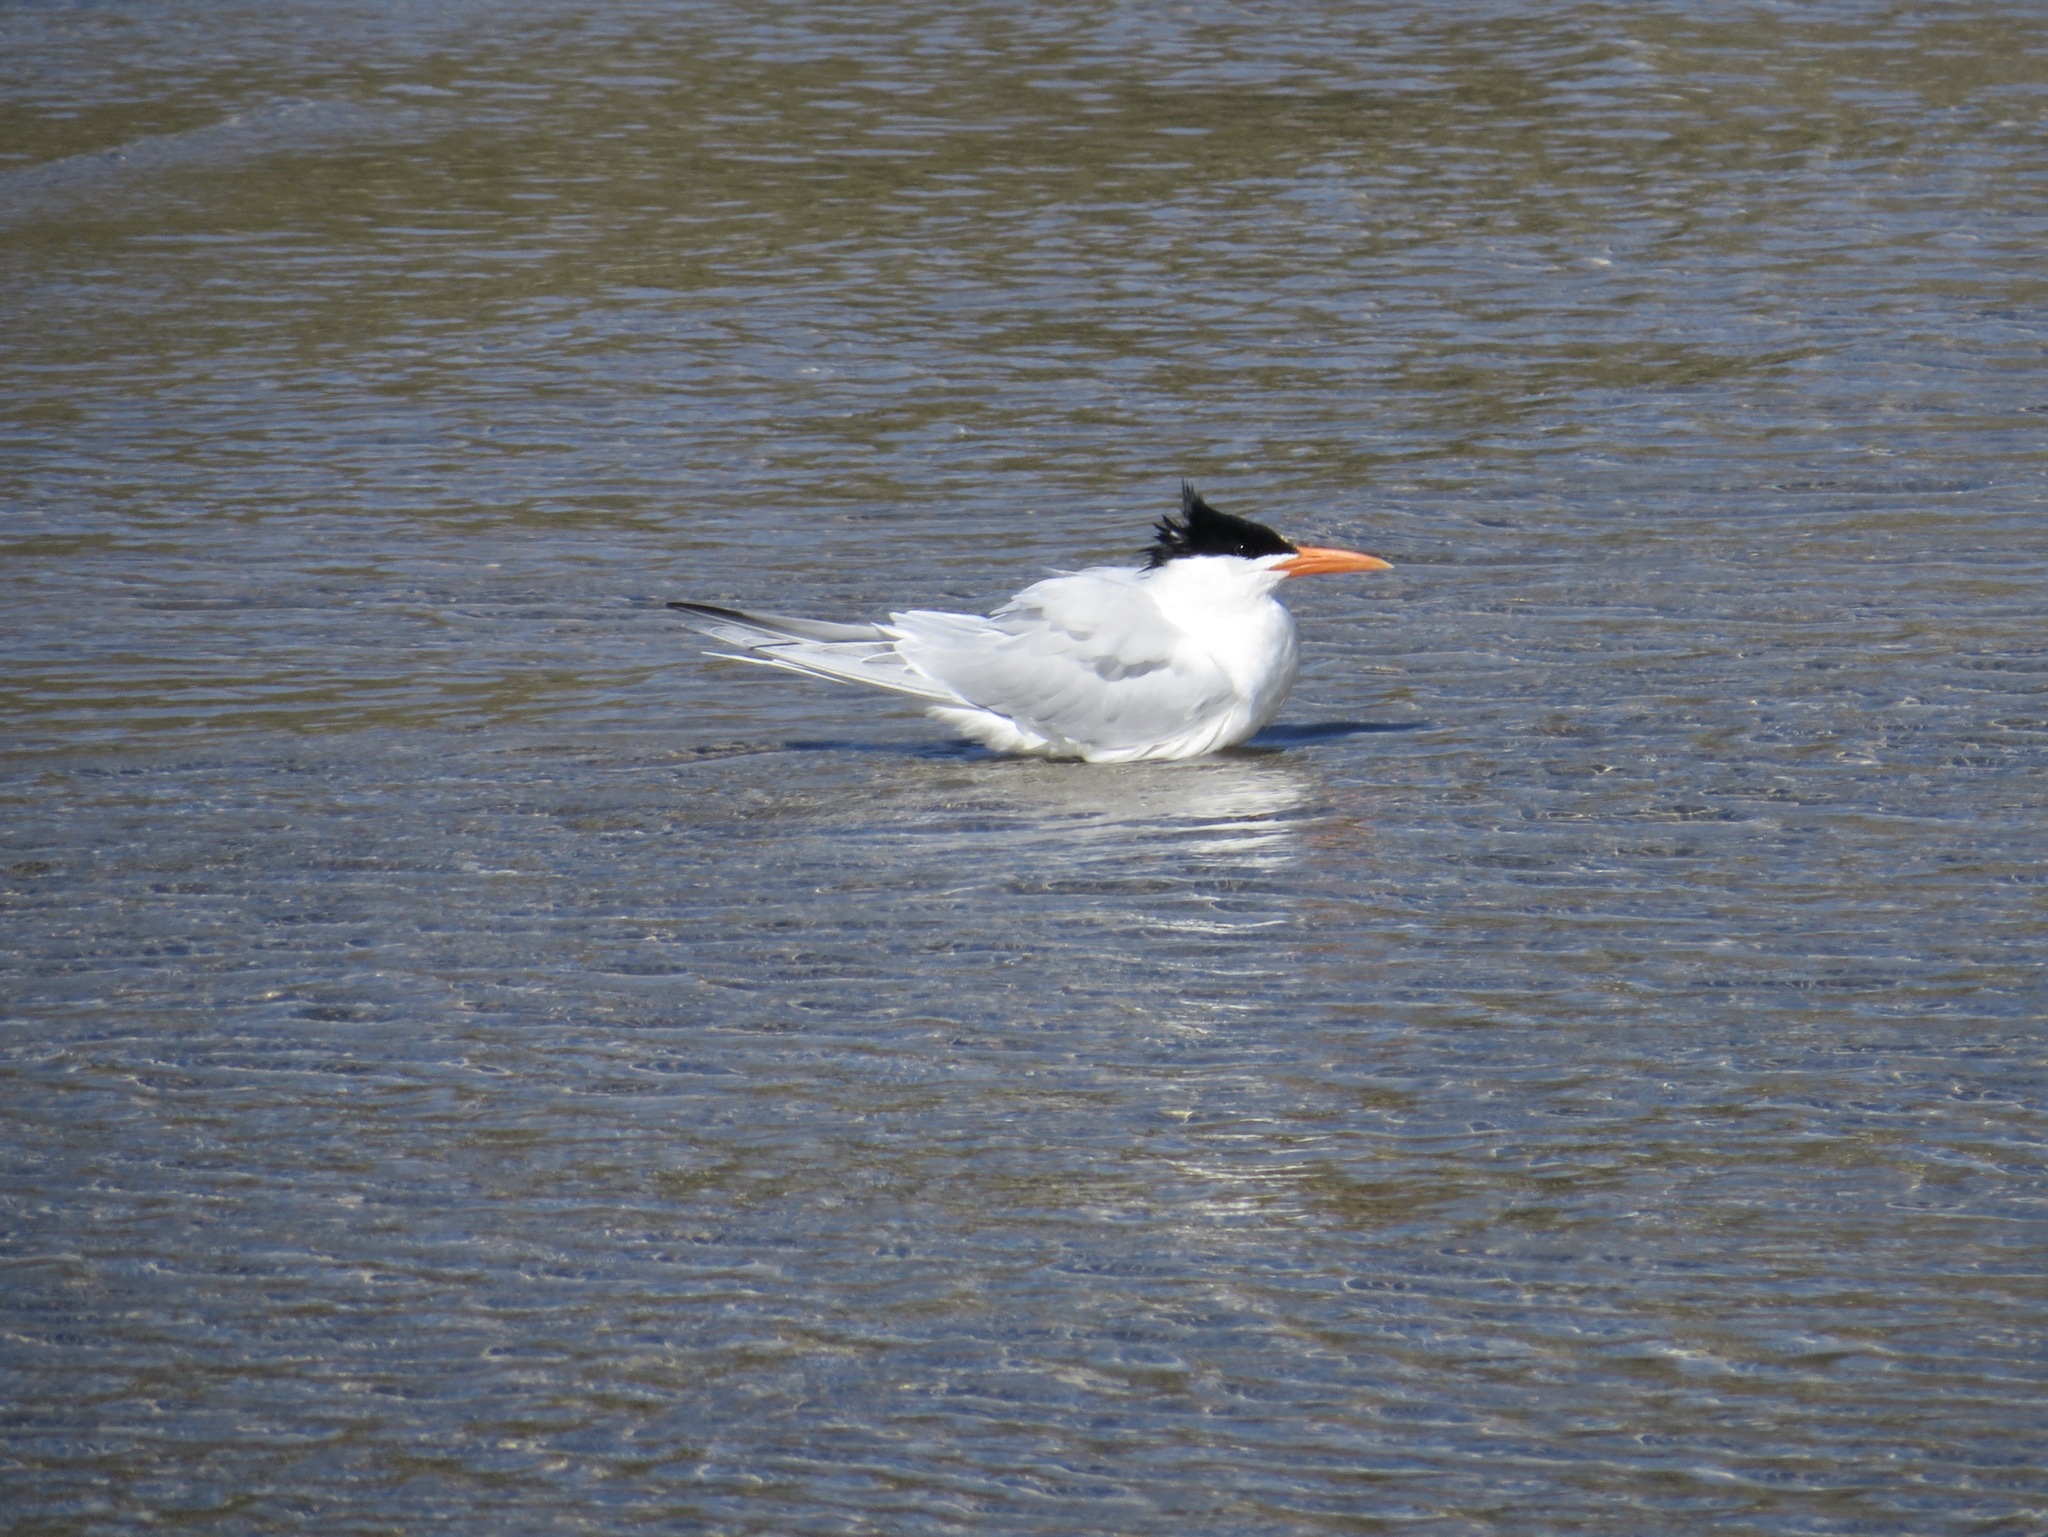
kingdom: Animalia
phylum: Chordata
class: Aves
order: Charadriiformes
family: Laridae
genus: Thalasseus
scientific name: Thalasseus maximus
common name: Royal tern
